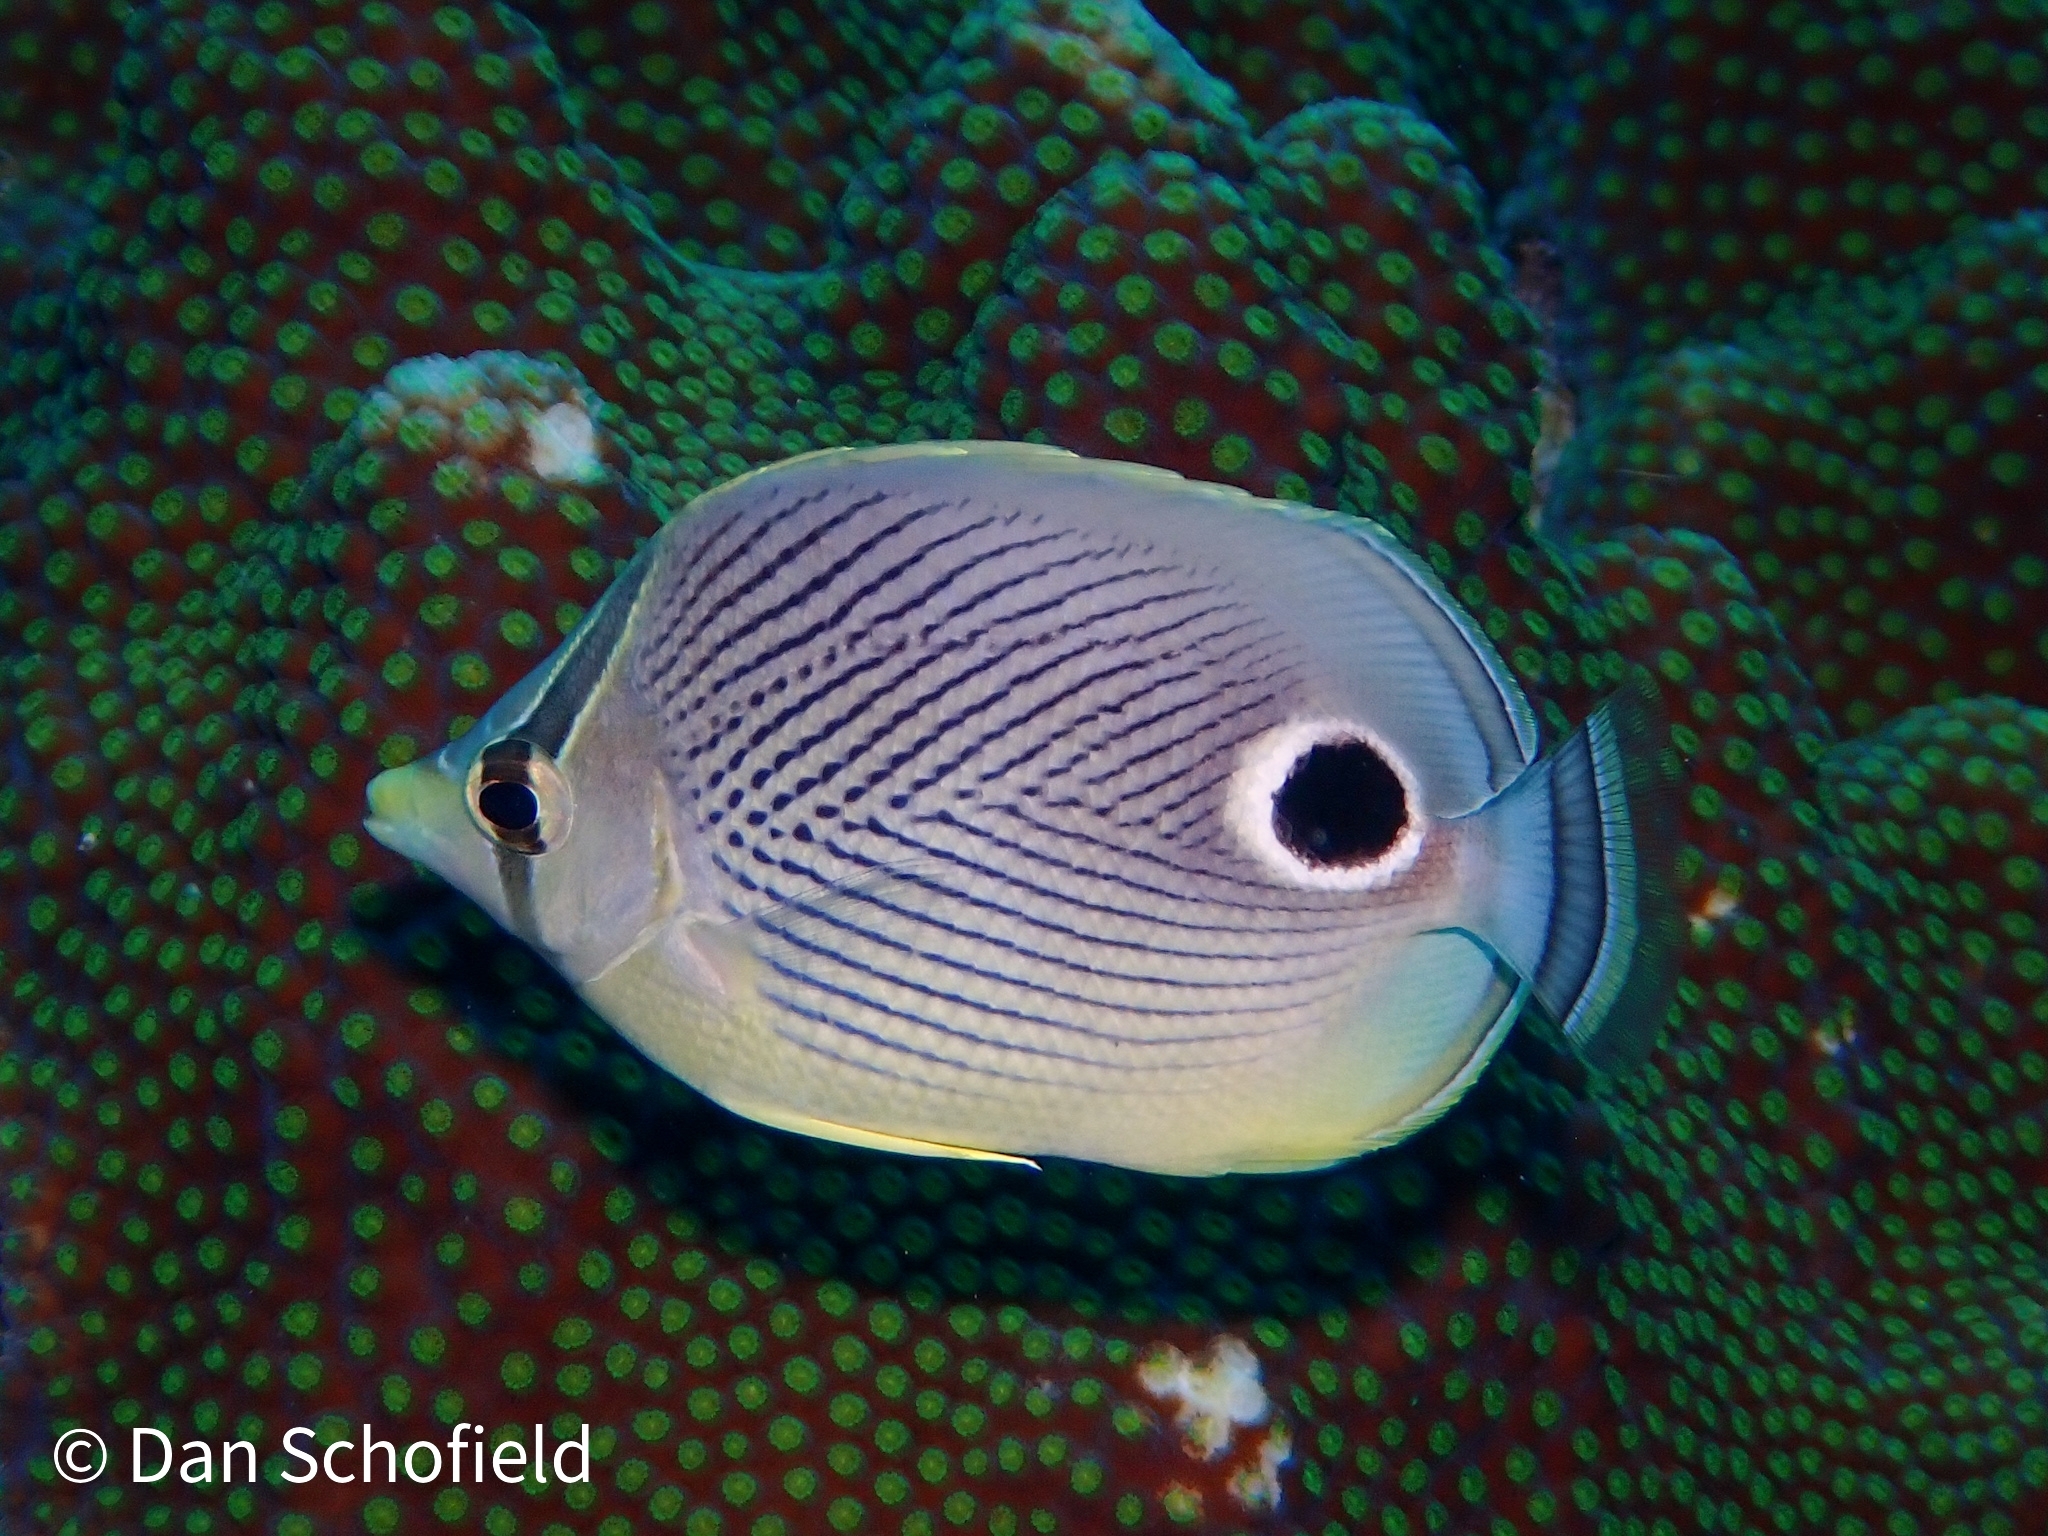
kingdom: Animalia
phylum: Chordata
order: Perciformes
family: Chaetodontidae
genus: Chaetodon
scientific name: Chaetodon capistratus
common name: Kete
